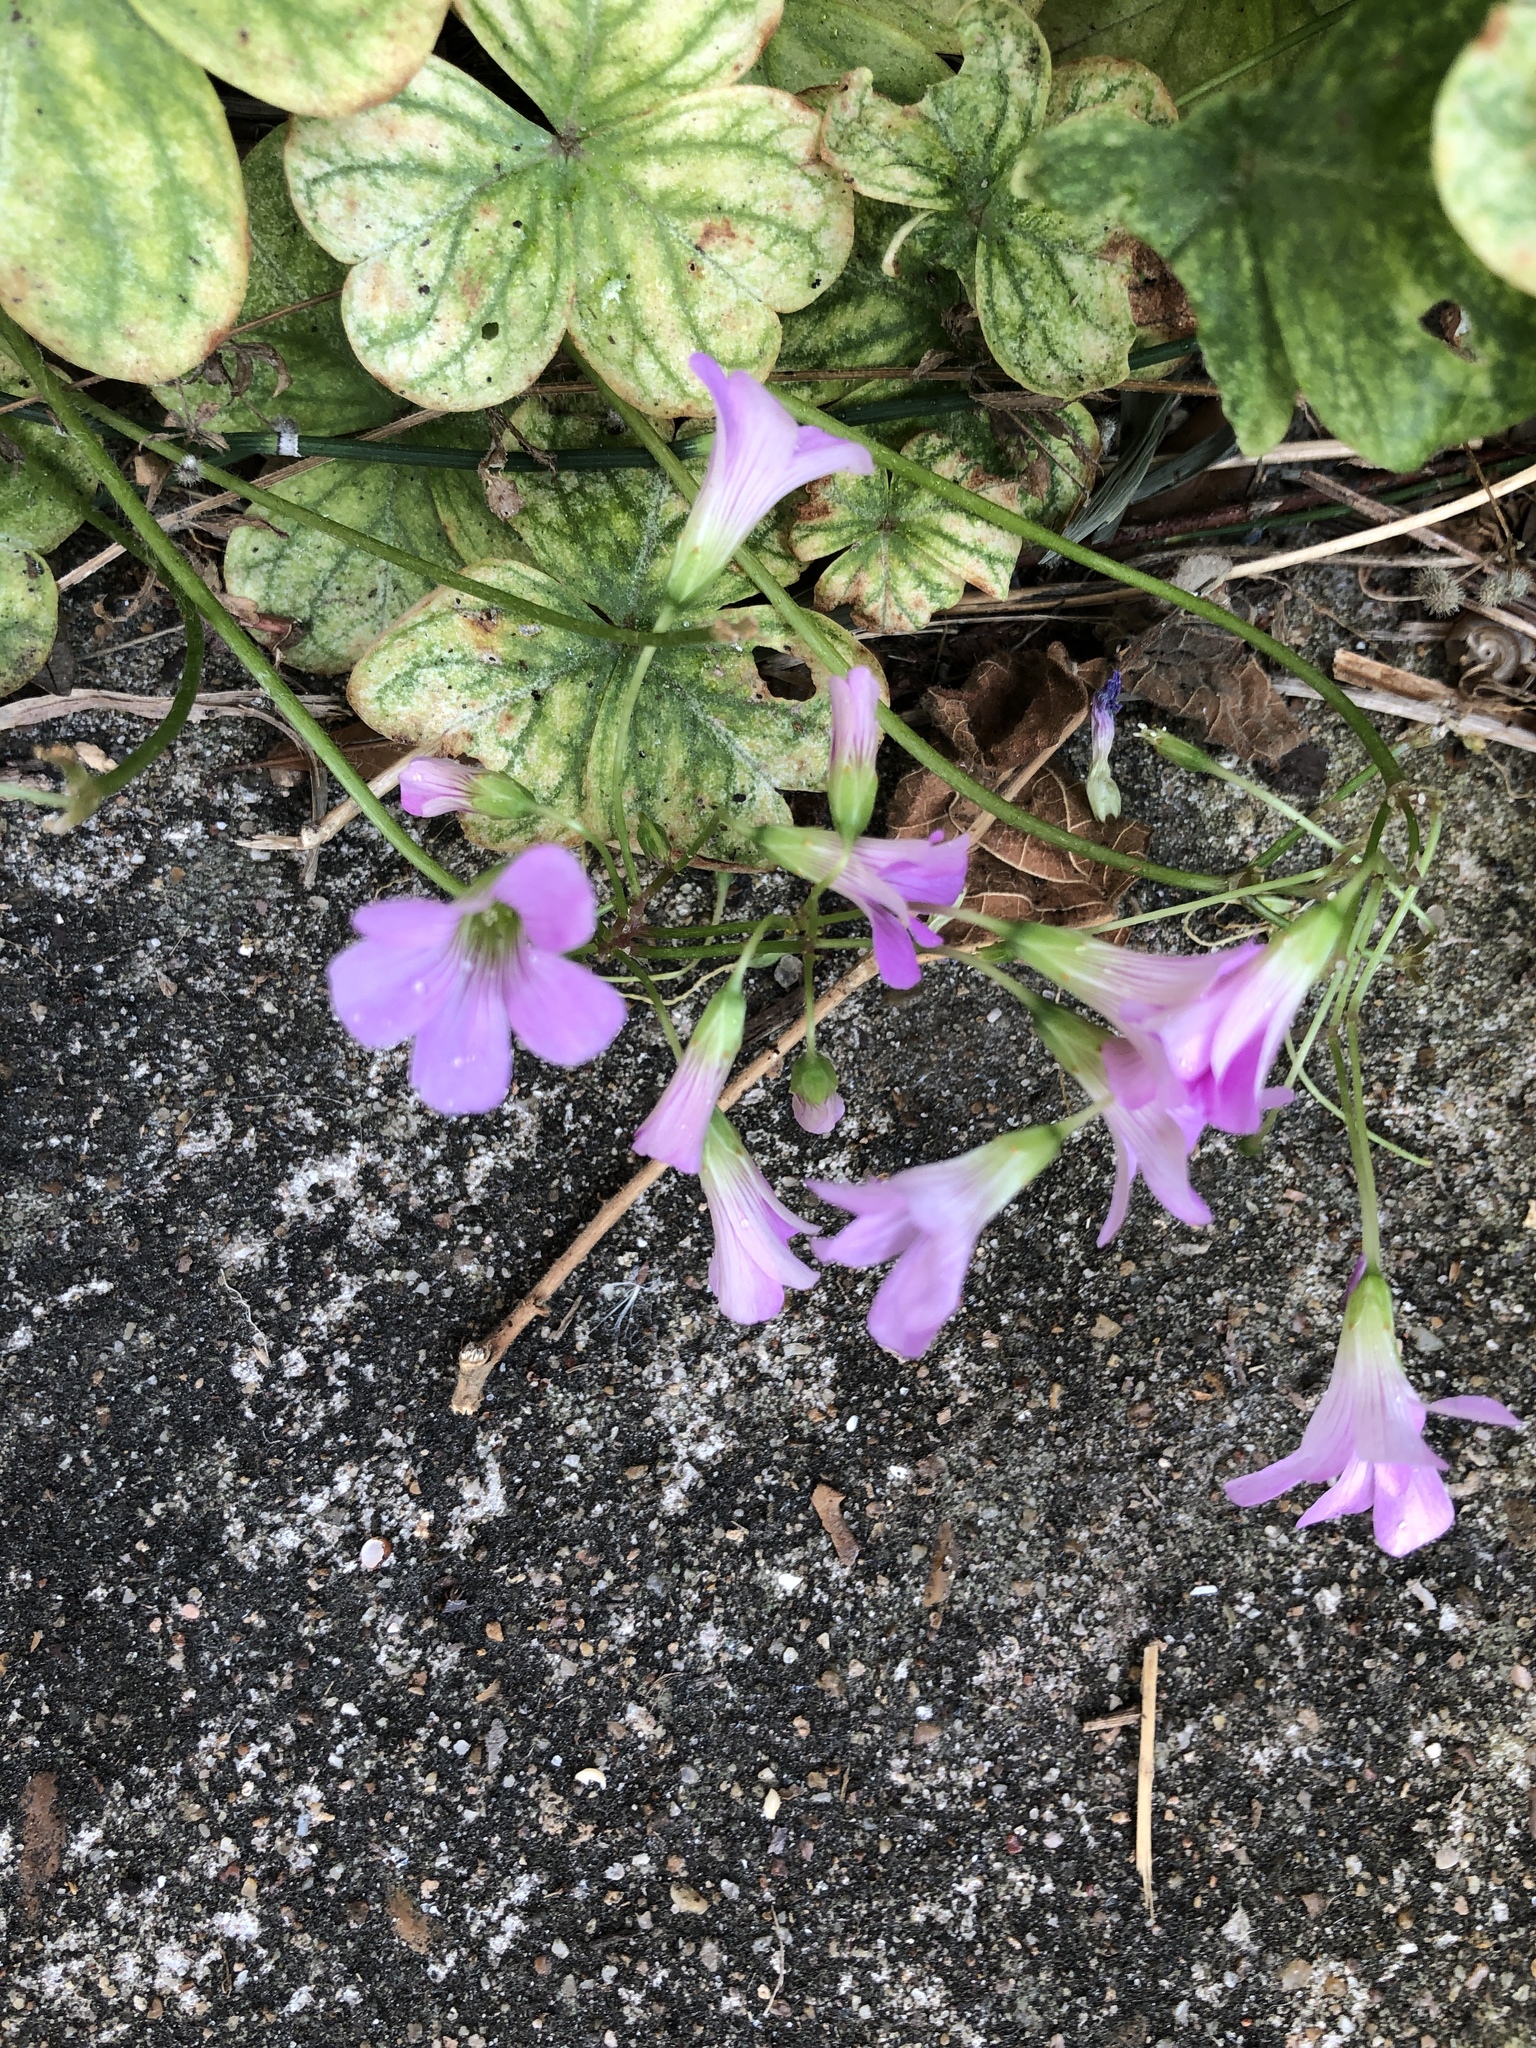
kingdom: Plantae
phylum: Tracheophyta
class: Magnoliopsida
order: Oxalidales
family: Oxalidaceae
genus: Oxalis
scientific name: Oxalis debilis
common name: Large-flowered pink-sorrel
